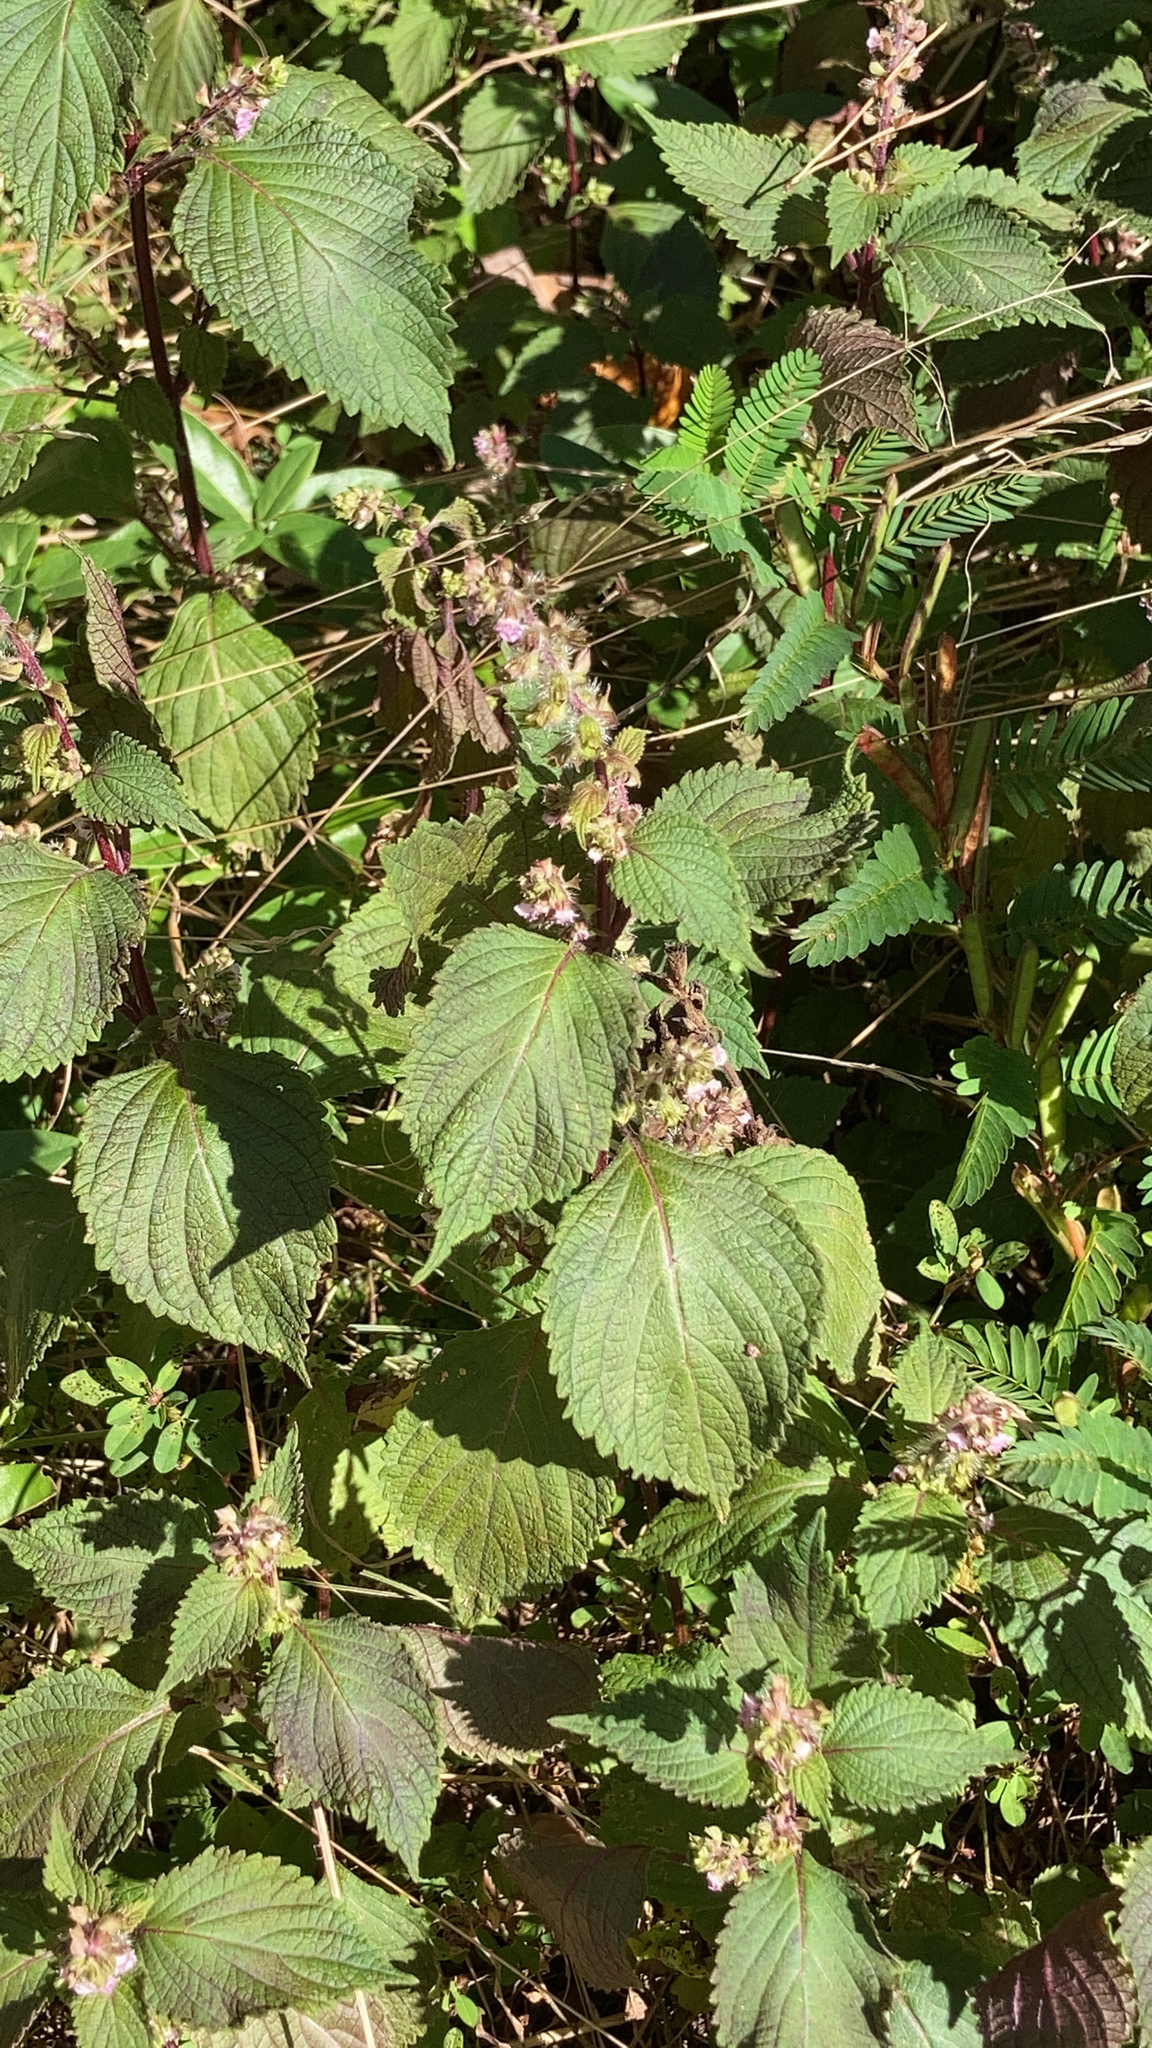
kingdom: Plantae
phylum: Tracheophyta
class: Magnoliopsida
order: Lamiales
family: Lamiaceae
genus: Perilla
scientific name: Perilla frutescens
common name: Perilla
